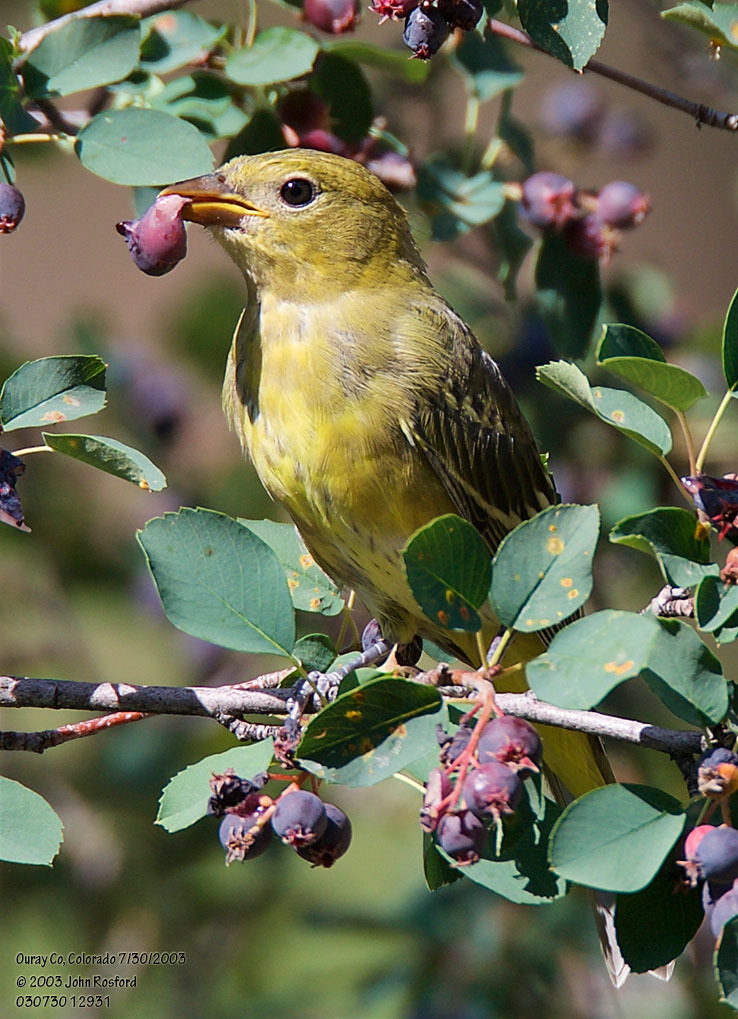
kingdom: Animalia
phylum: Chordata
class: Aves
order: Passeriformes
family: Cardinalidae
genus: Piranga
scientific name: Piranga ludoviciana
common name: Western tanager
